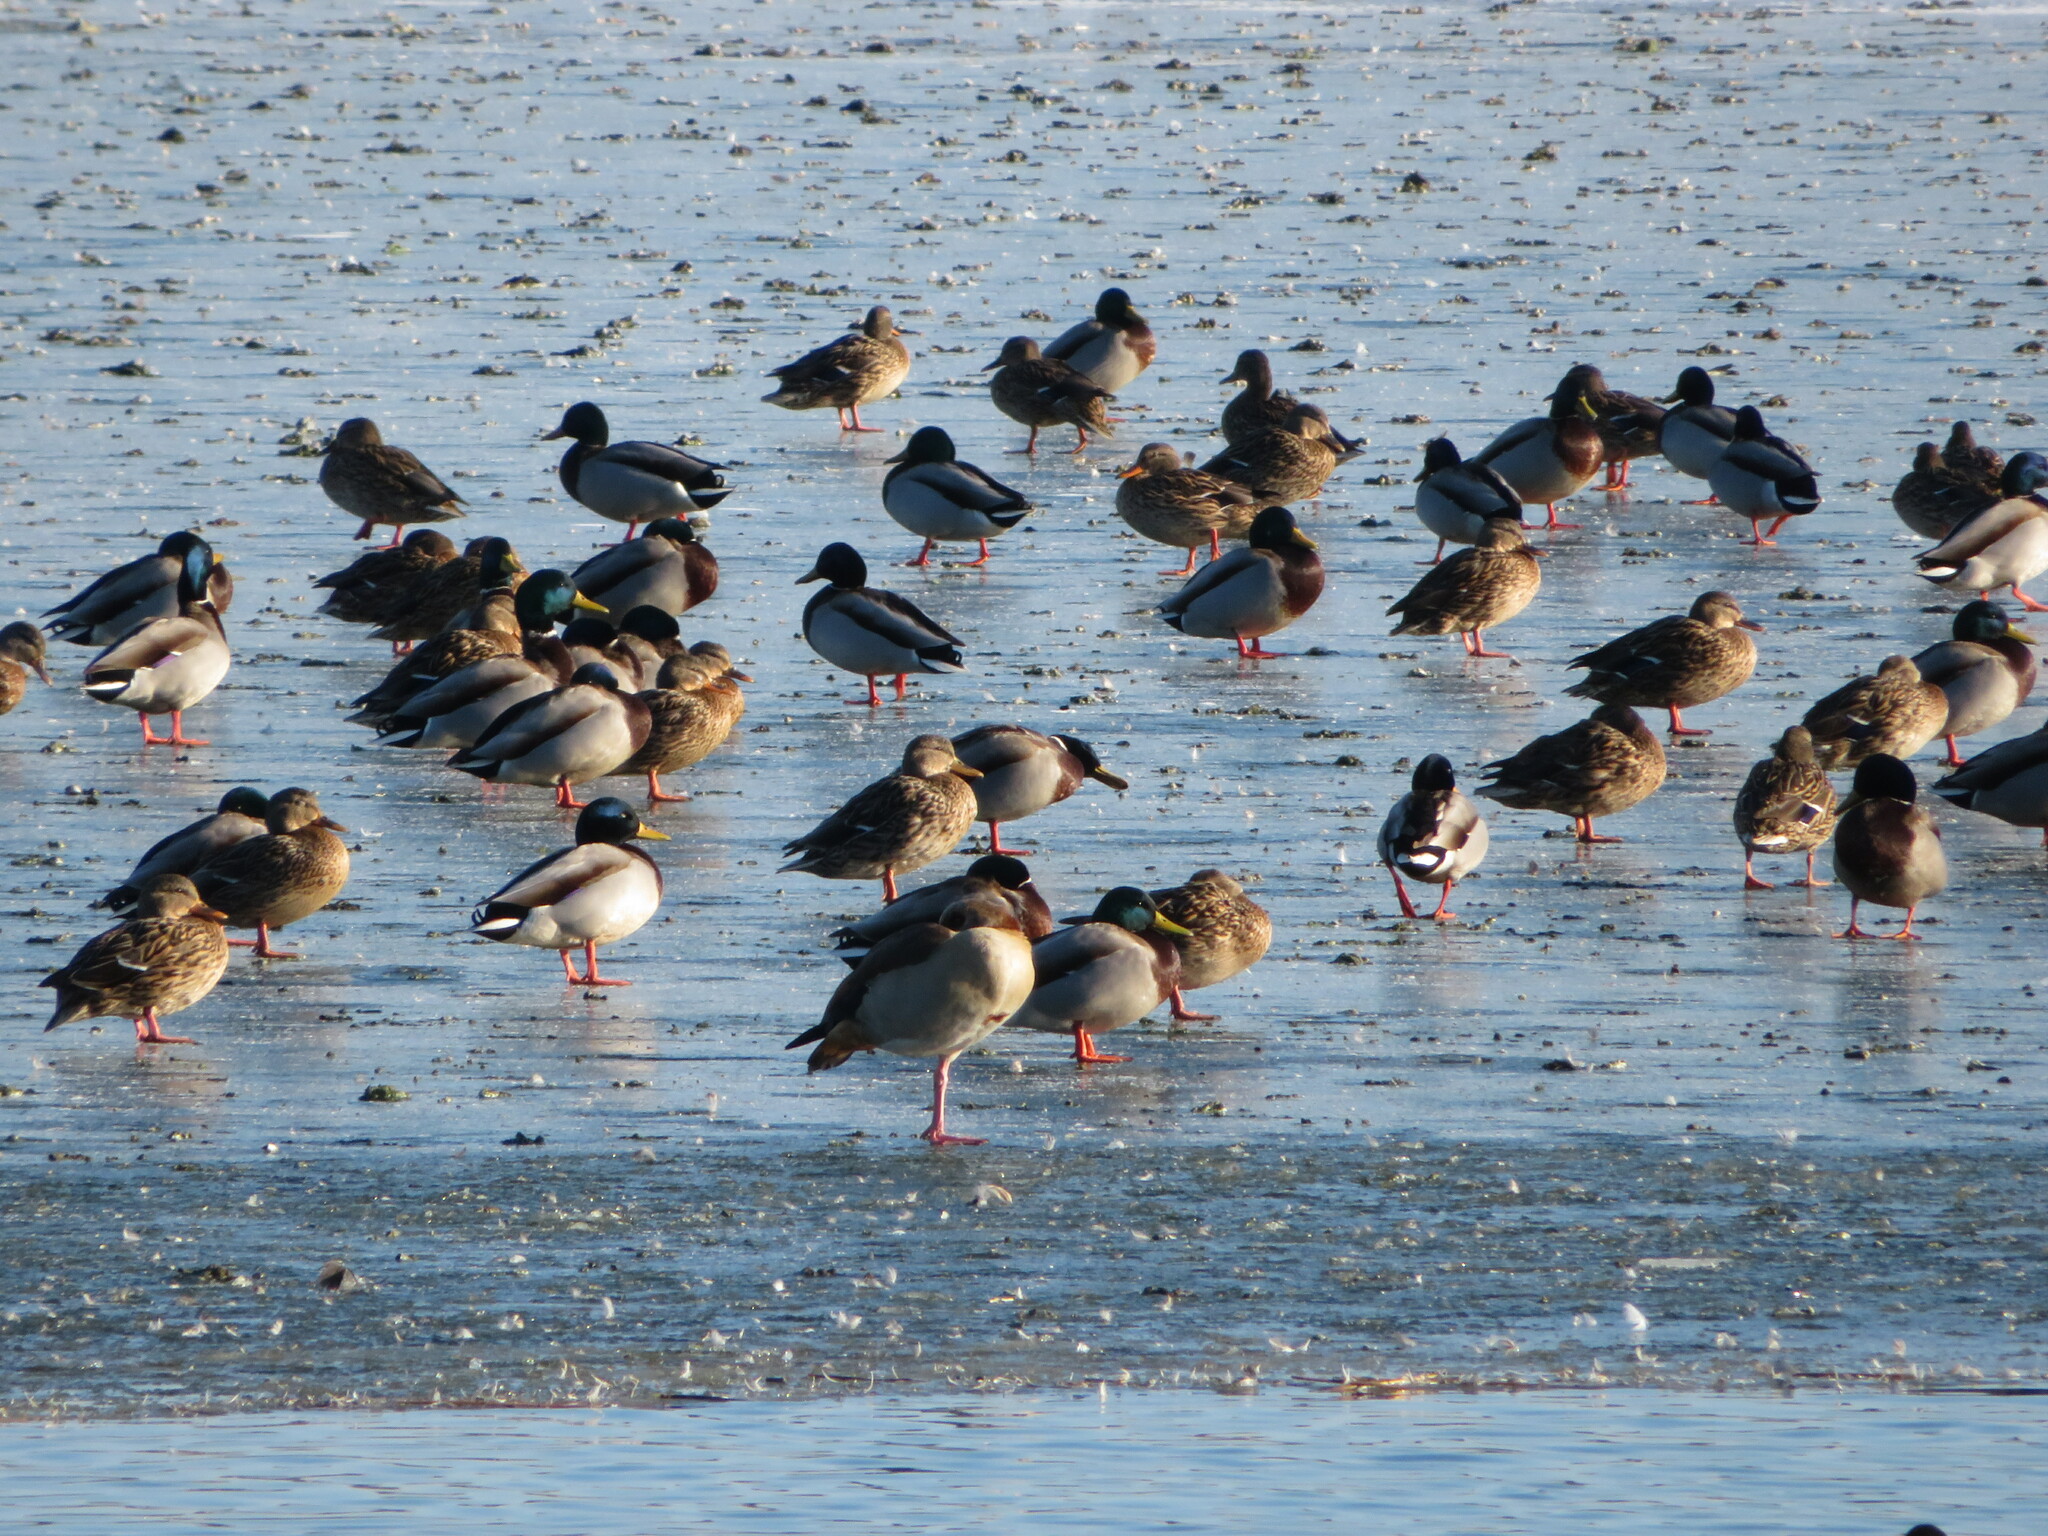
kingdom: Animalia
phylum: Chordata
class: Aves
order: Anseriformes
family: Anatidae
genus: Anas
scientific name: Anas platyrhynchos
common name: Mallard
